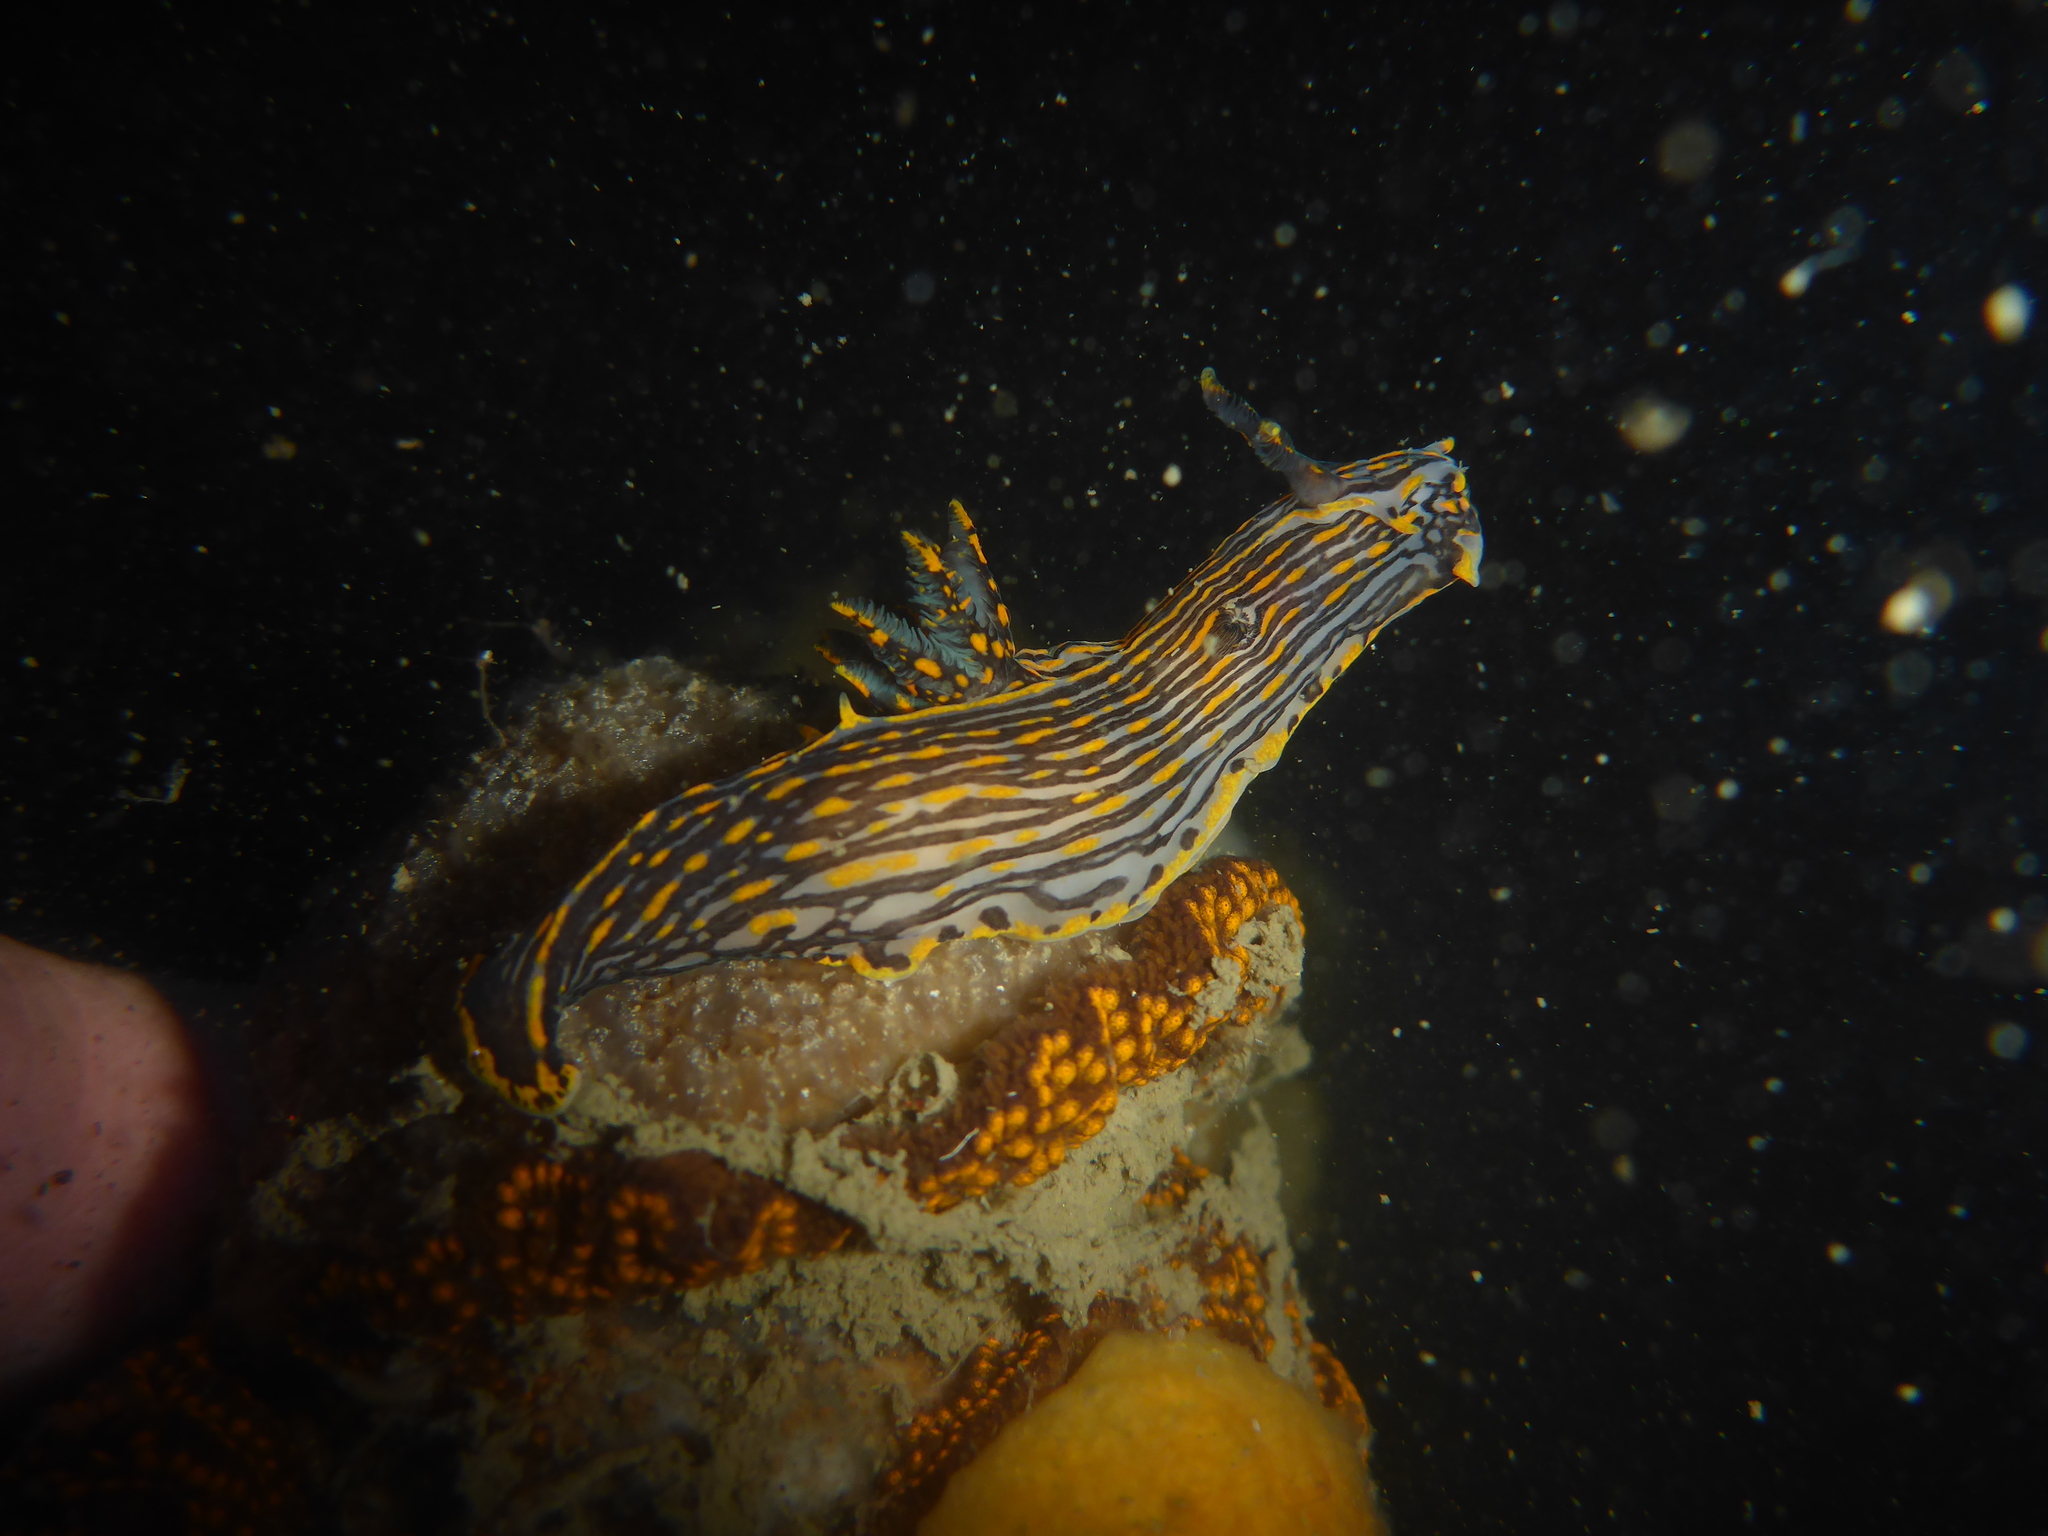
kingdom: Animalia
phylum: Mollusca
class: Gastropoda
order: Nudibranchia
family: Polyceridae
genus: Polycera
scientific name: Polycera atra
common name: Orange-spike polycera
